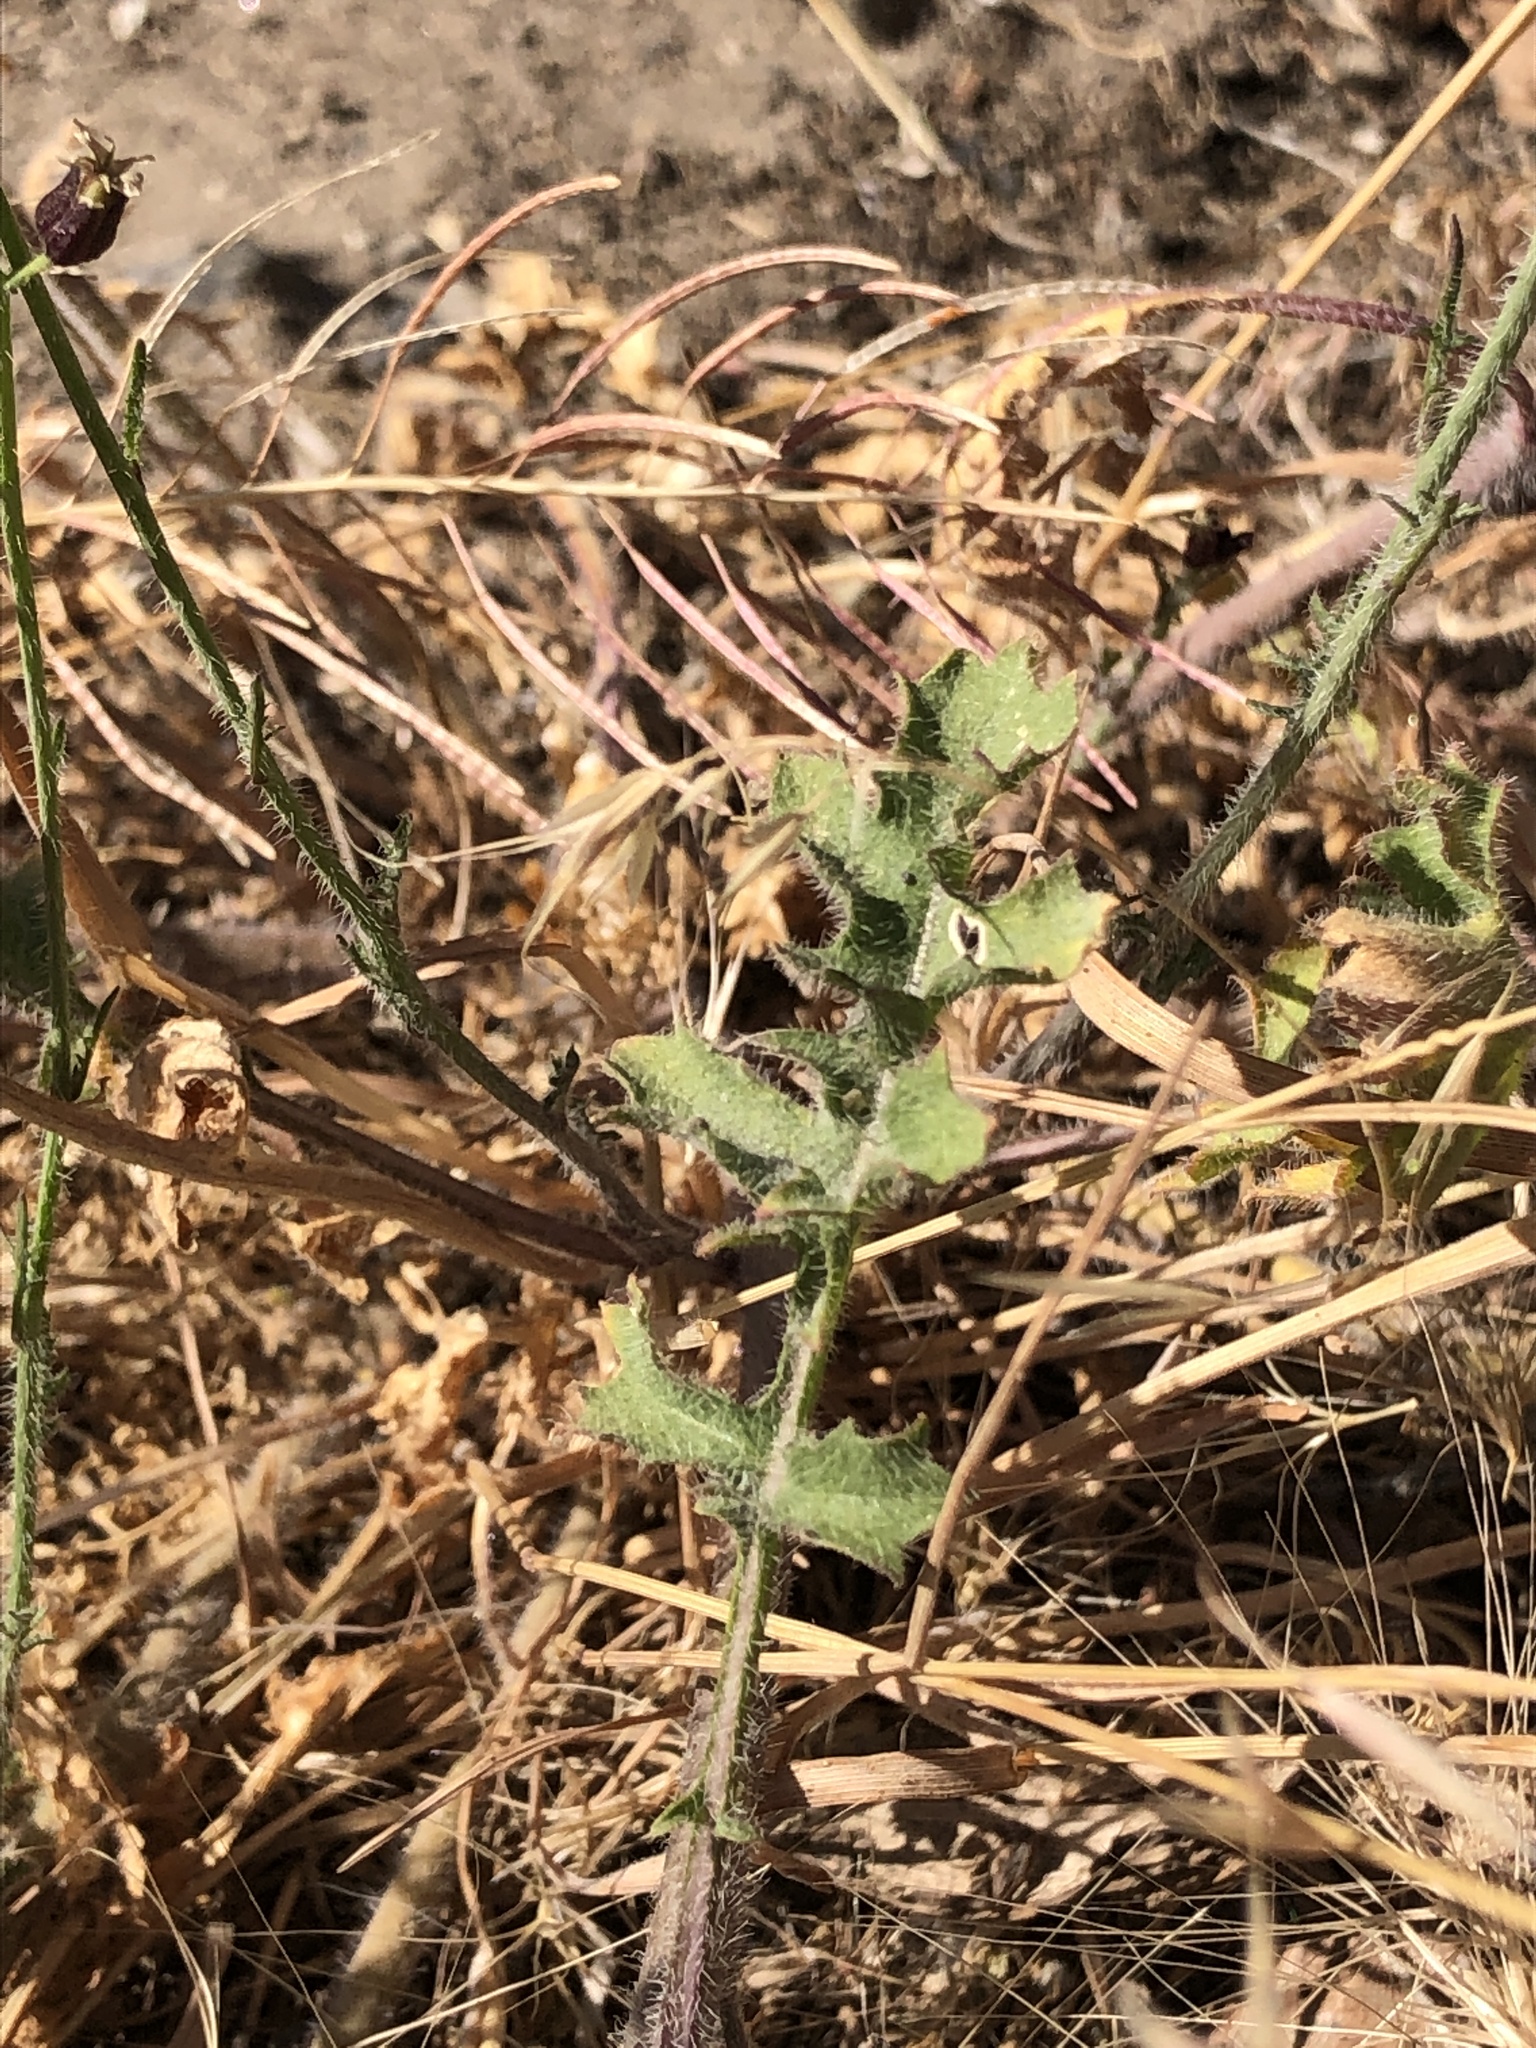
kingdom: Plantae
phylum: Tracheophyta
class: Magnoliopsida
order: Brassicales
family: Brassicaceae
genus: Streptanthus
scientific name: Streptanthus pilosus
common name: Chocolate drops
